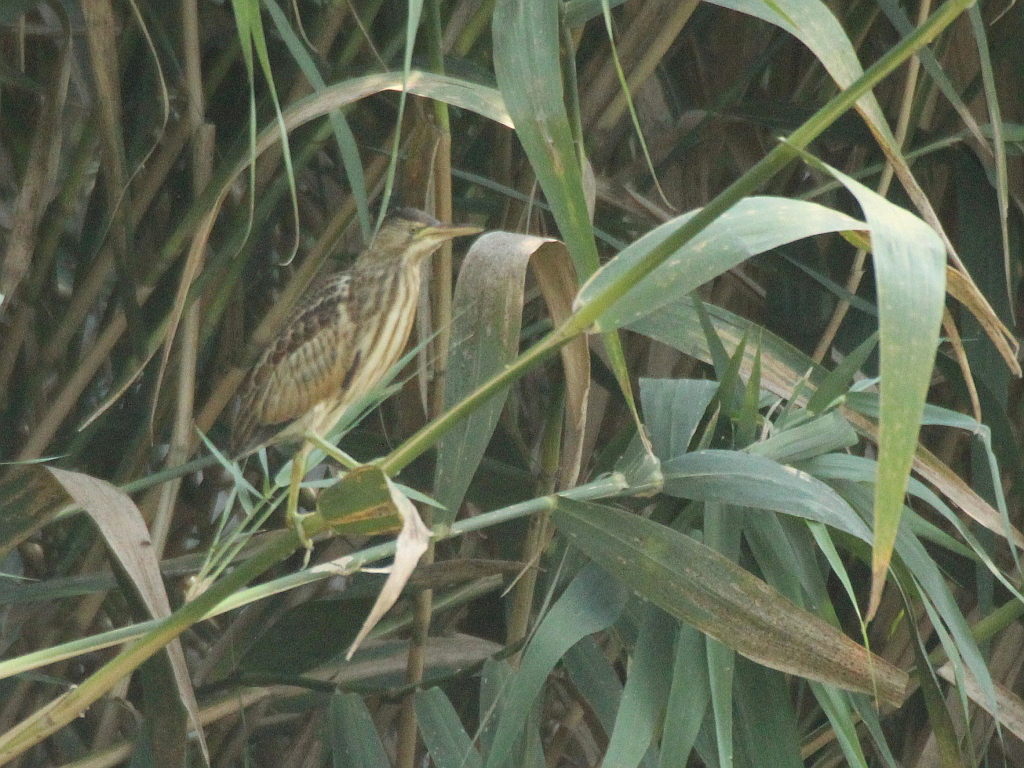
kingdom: Animalia
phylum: Chordata
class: Aves
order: Pelecaniformes
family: Ardeidae
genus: Ixobrychus
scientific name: Ixobrychus minutus
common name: Little bittern
